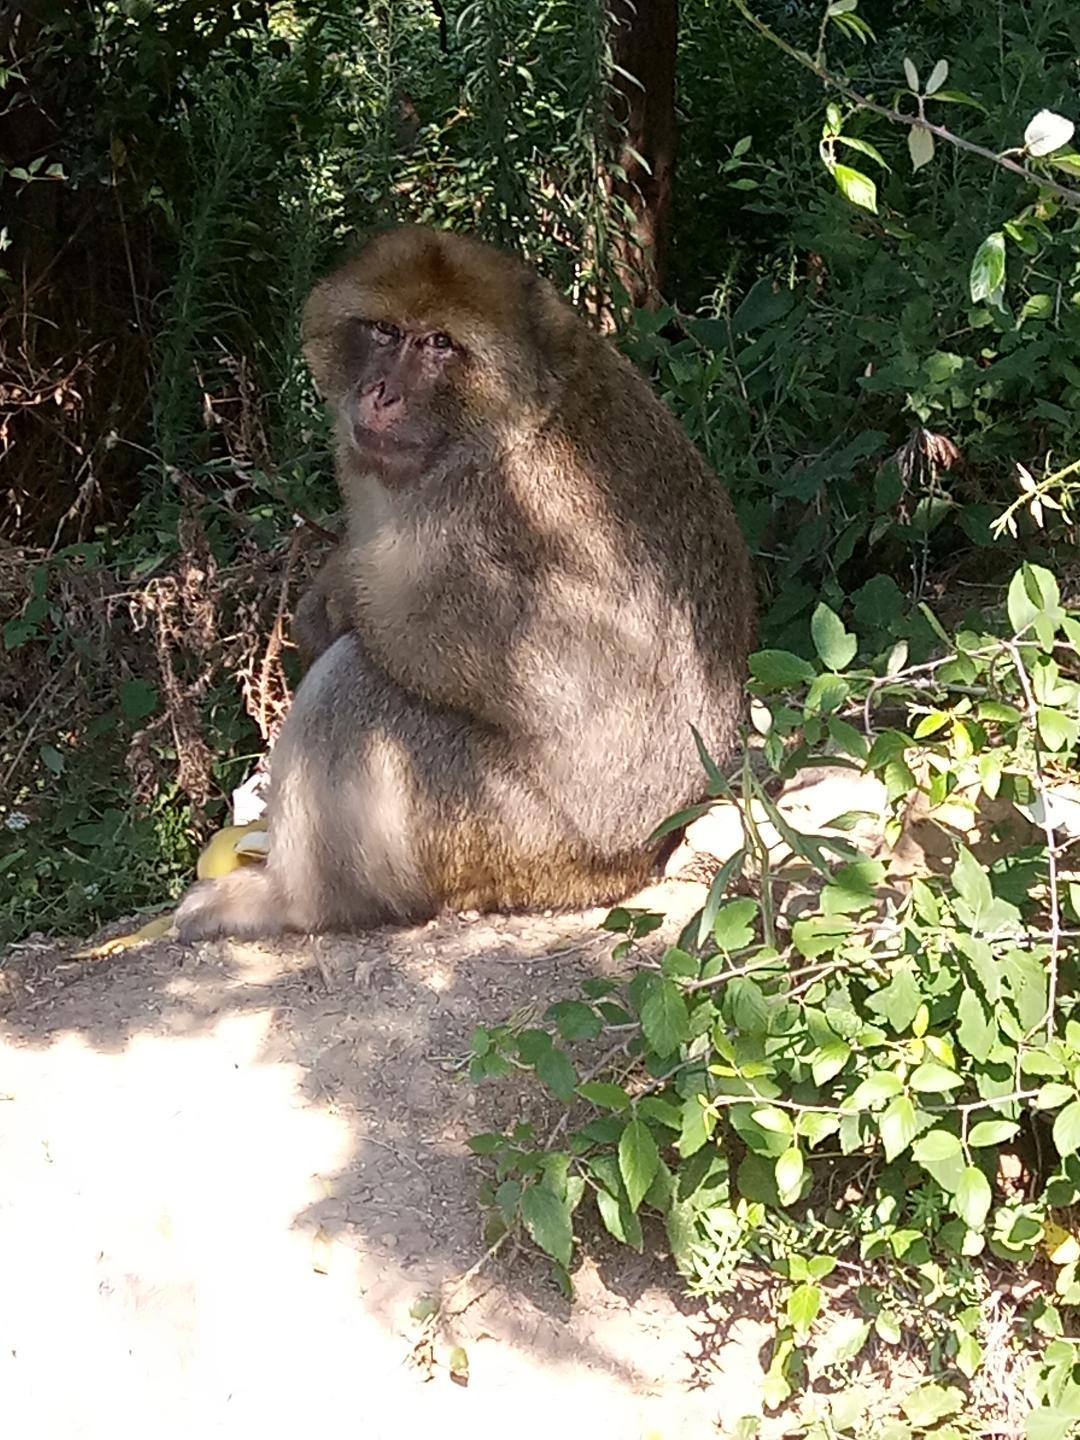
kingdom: Animalia
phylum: Chordata
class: Mammalia
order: Primates
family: Cercopithecidae
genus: Macaca
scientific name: Macaca sylvanus
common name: Barbary macaque
